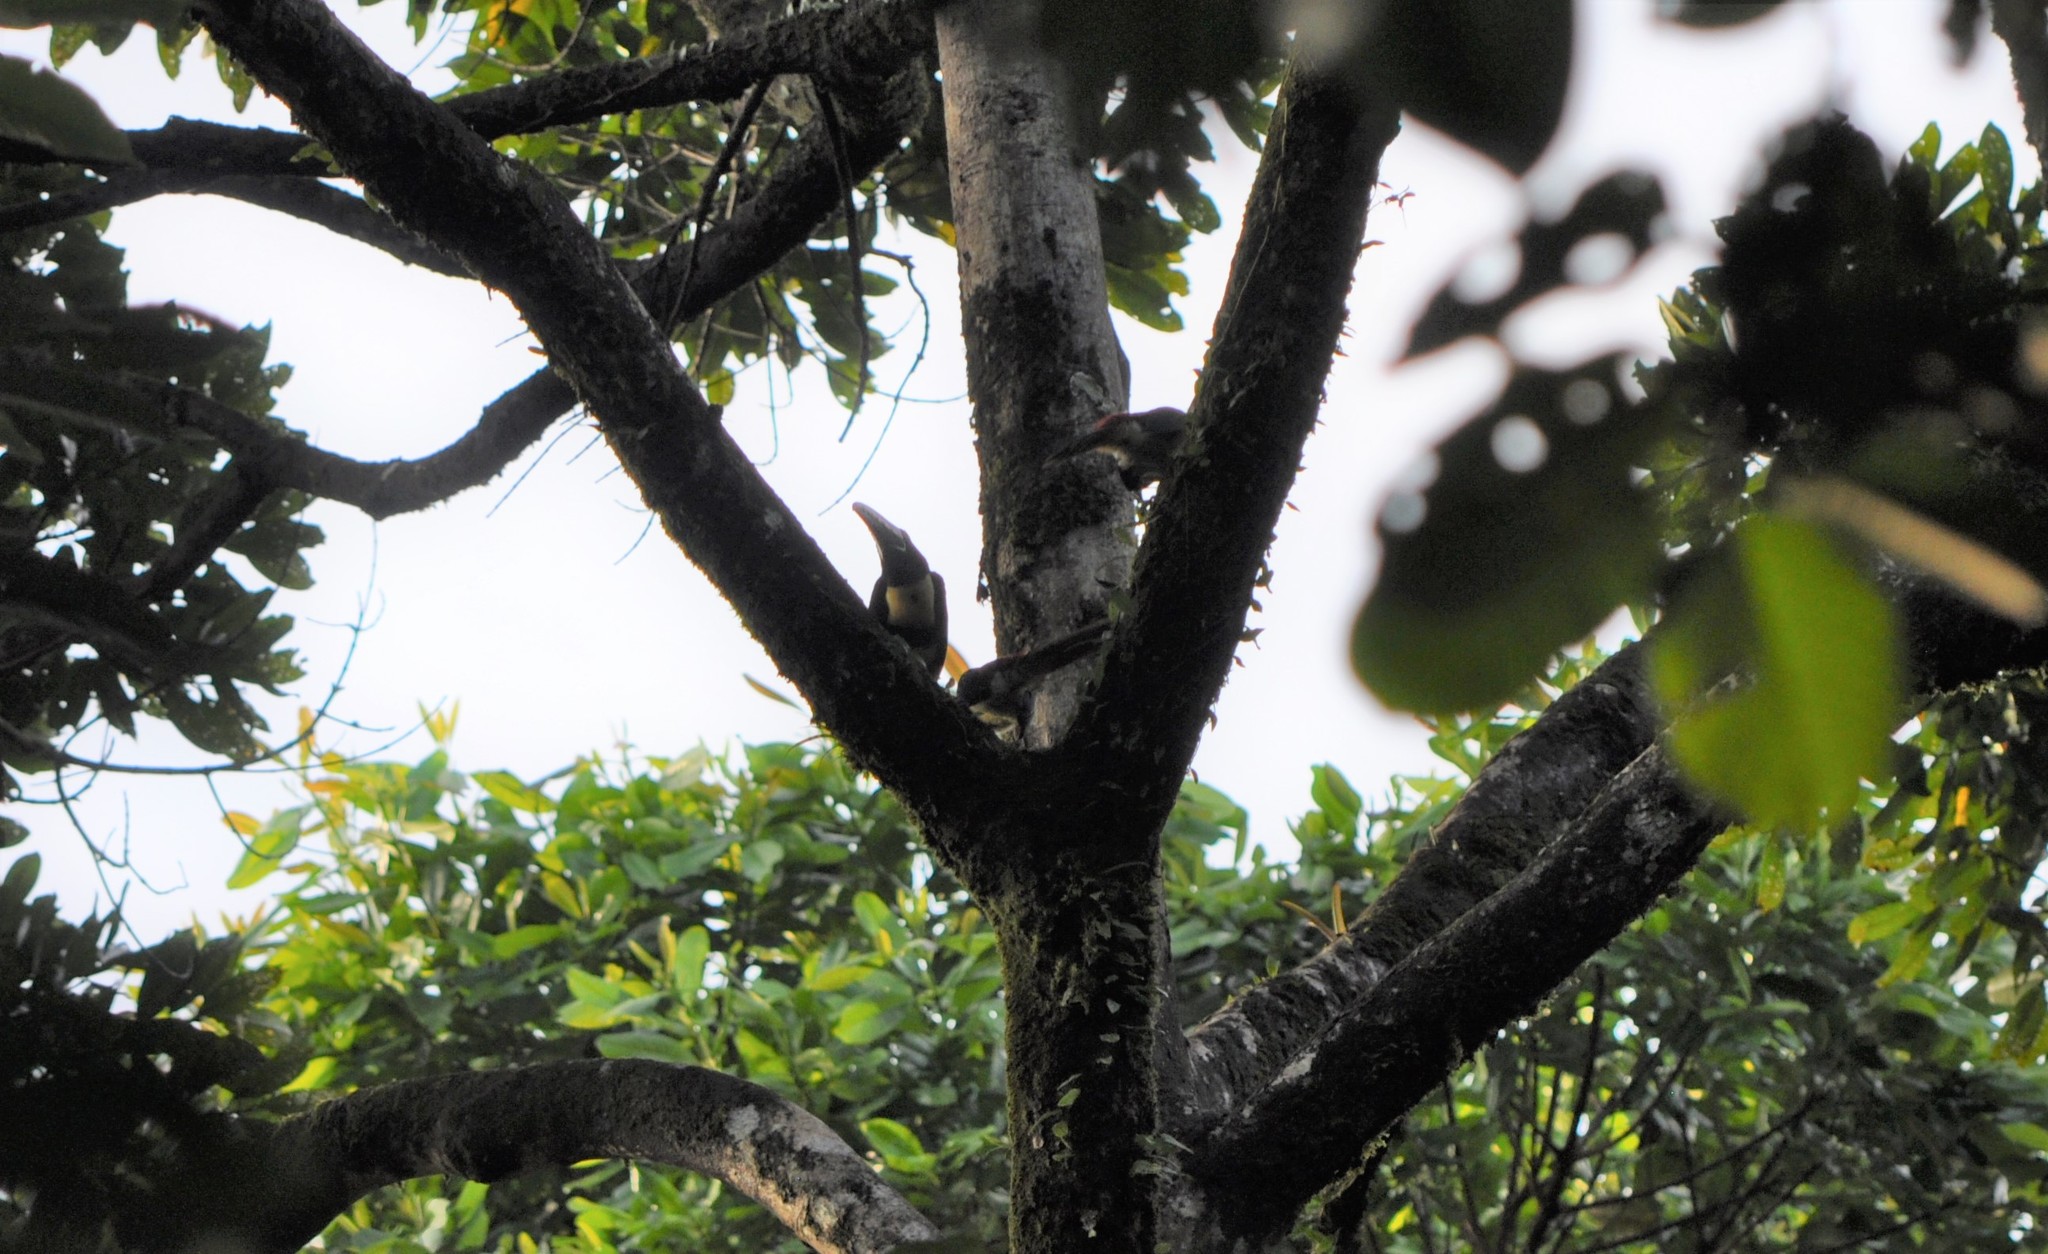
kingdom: Animalia
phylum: Chordata
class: Aves
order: Piciformes
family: Ramphastidae
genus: Pteroglossus
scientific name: Pteroglossus torquatus
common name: Collared aracari
